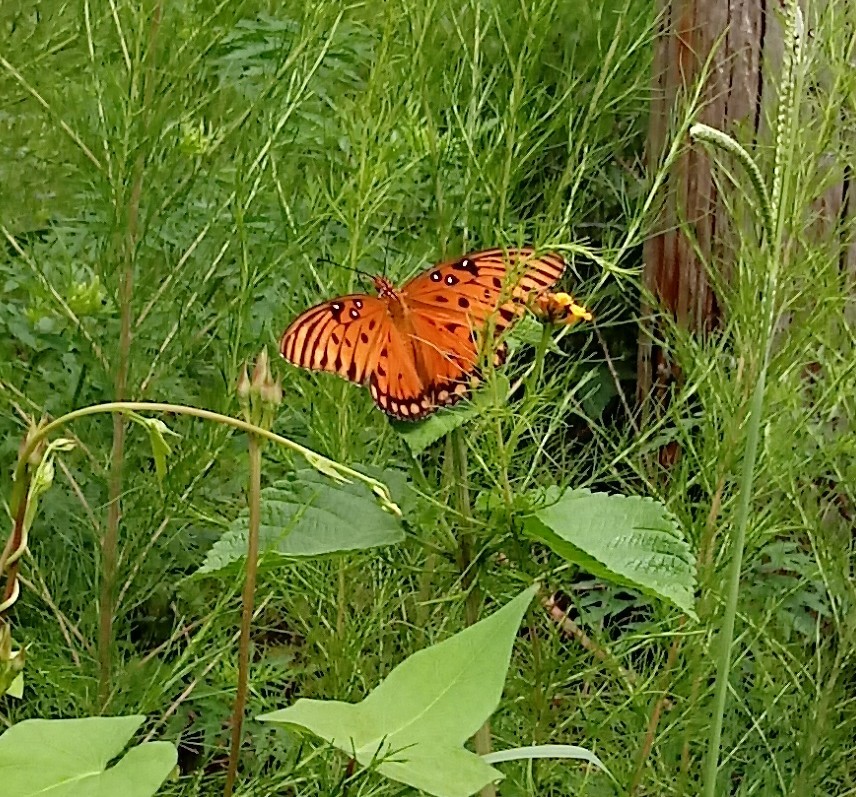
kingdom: Animalia
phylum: Arthropoda
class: Insecta
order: Lepidoptera
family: Nymphalidae
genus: Dione
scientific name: Dione vanillae
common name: Gulf fritillary
